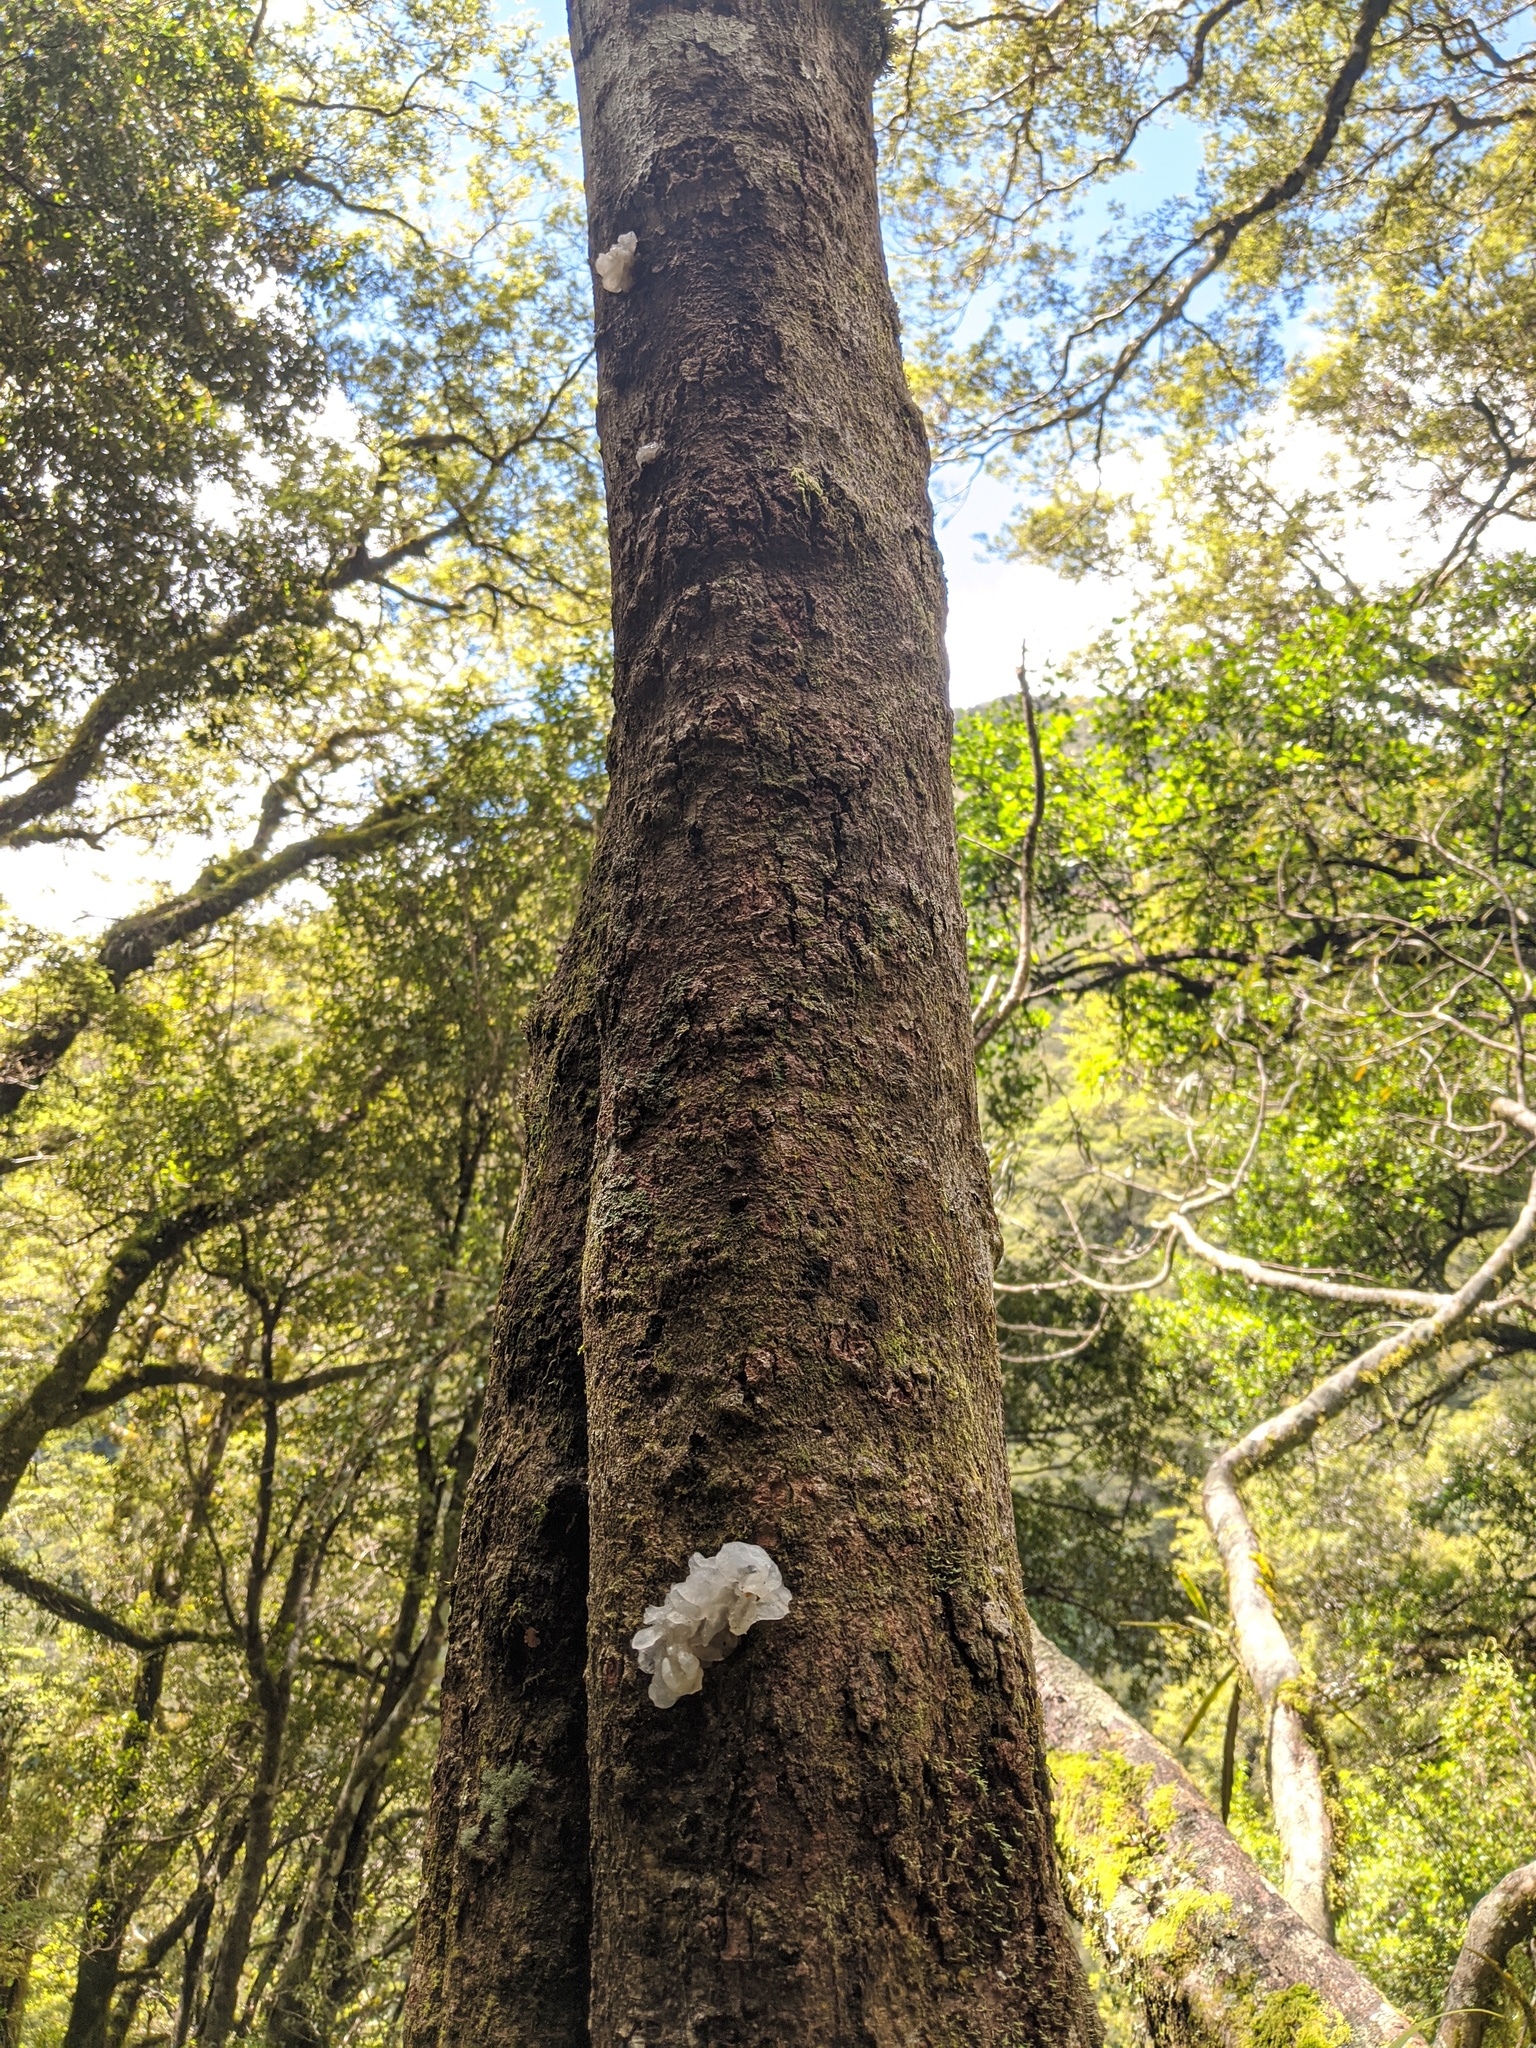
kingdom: Fungi
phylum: Basidiomycota
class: Tremellomycetes
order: Tremellales
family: Tremellaceae
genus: Tremella
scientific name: Tremella fuciformis
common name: Snow fungus
